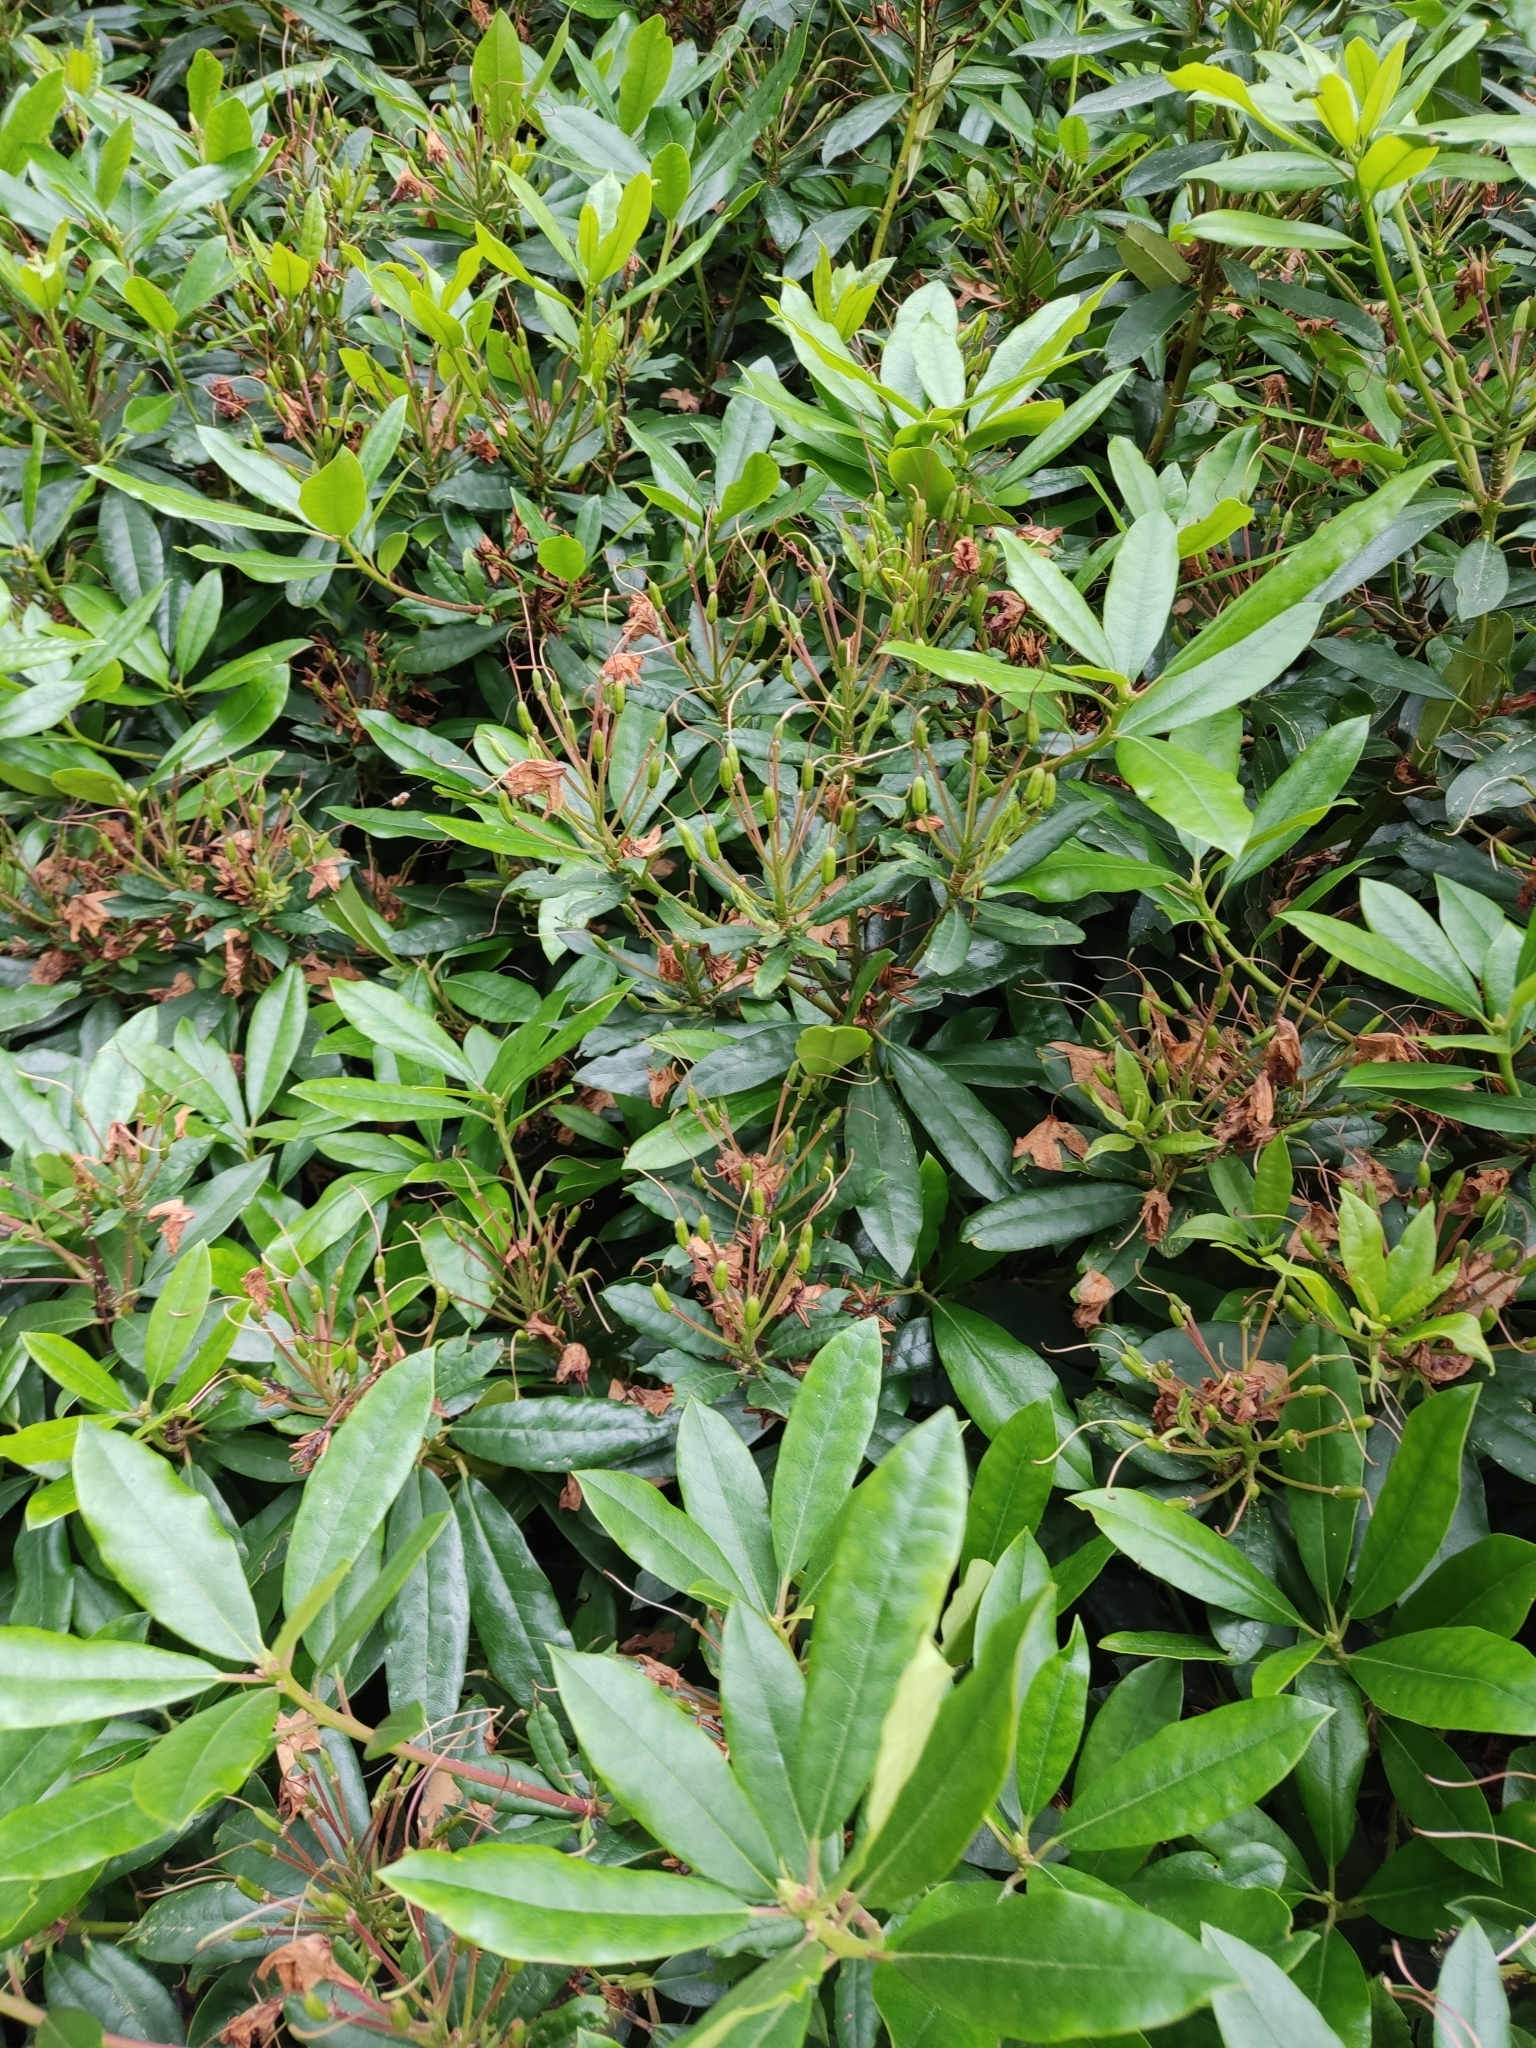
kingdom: Plantae
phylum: Tracheophyta
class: Magnoliopsida
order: Ericales
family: Ericaceae
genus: Rhododendron
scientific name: Rhododendron ponticum
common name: Rhododendron
